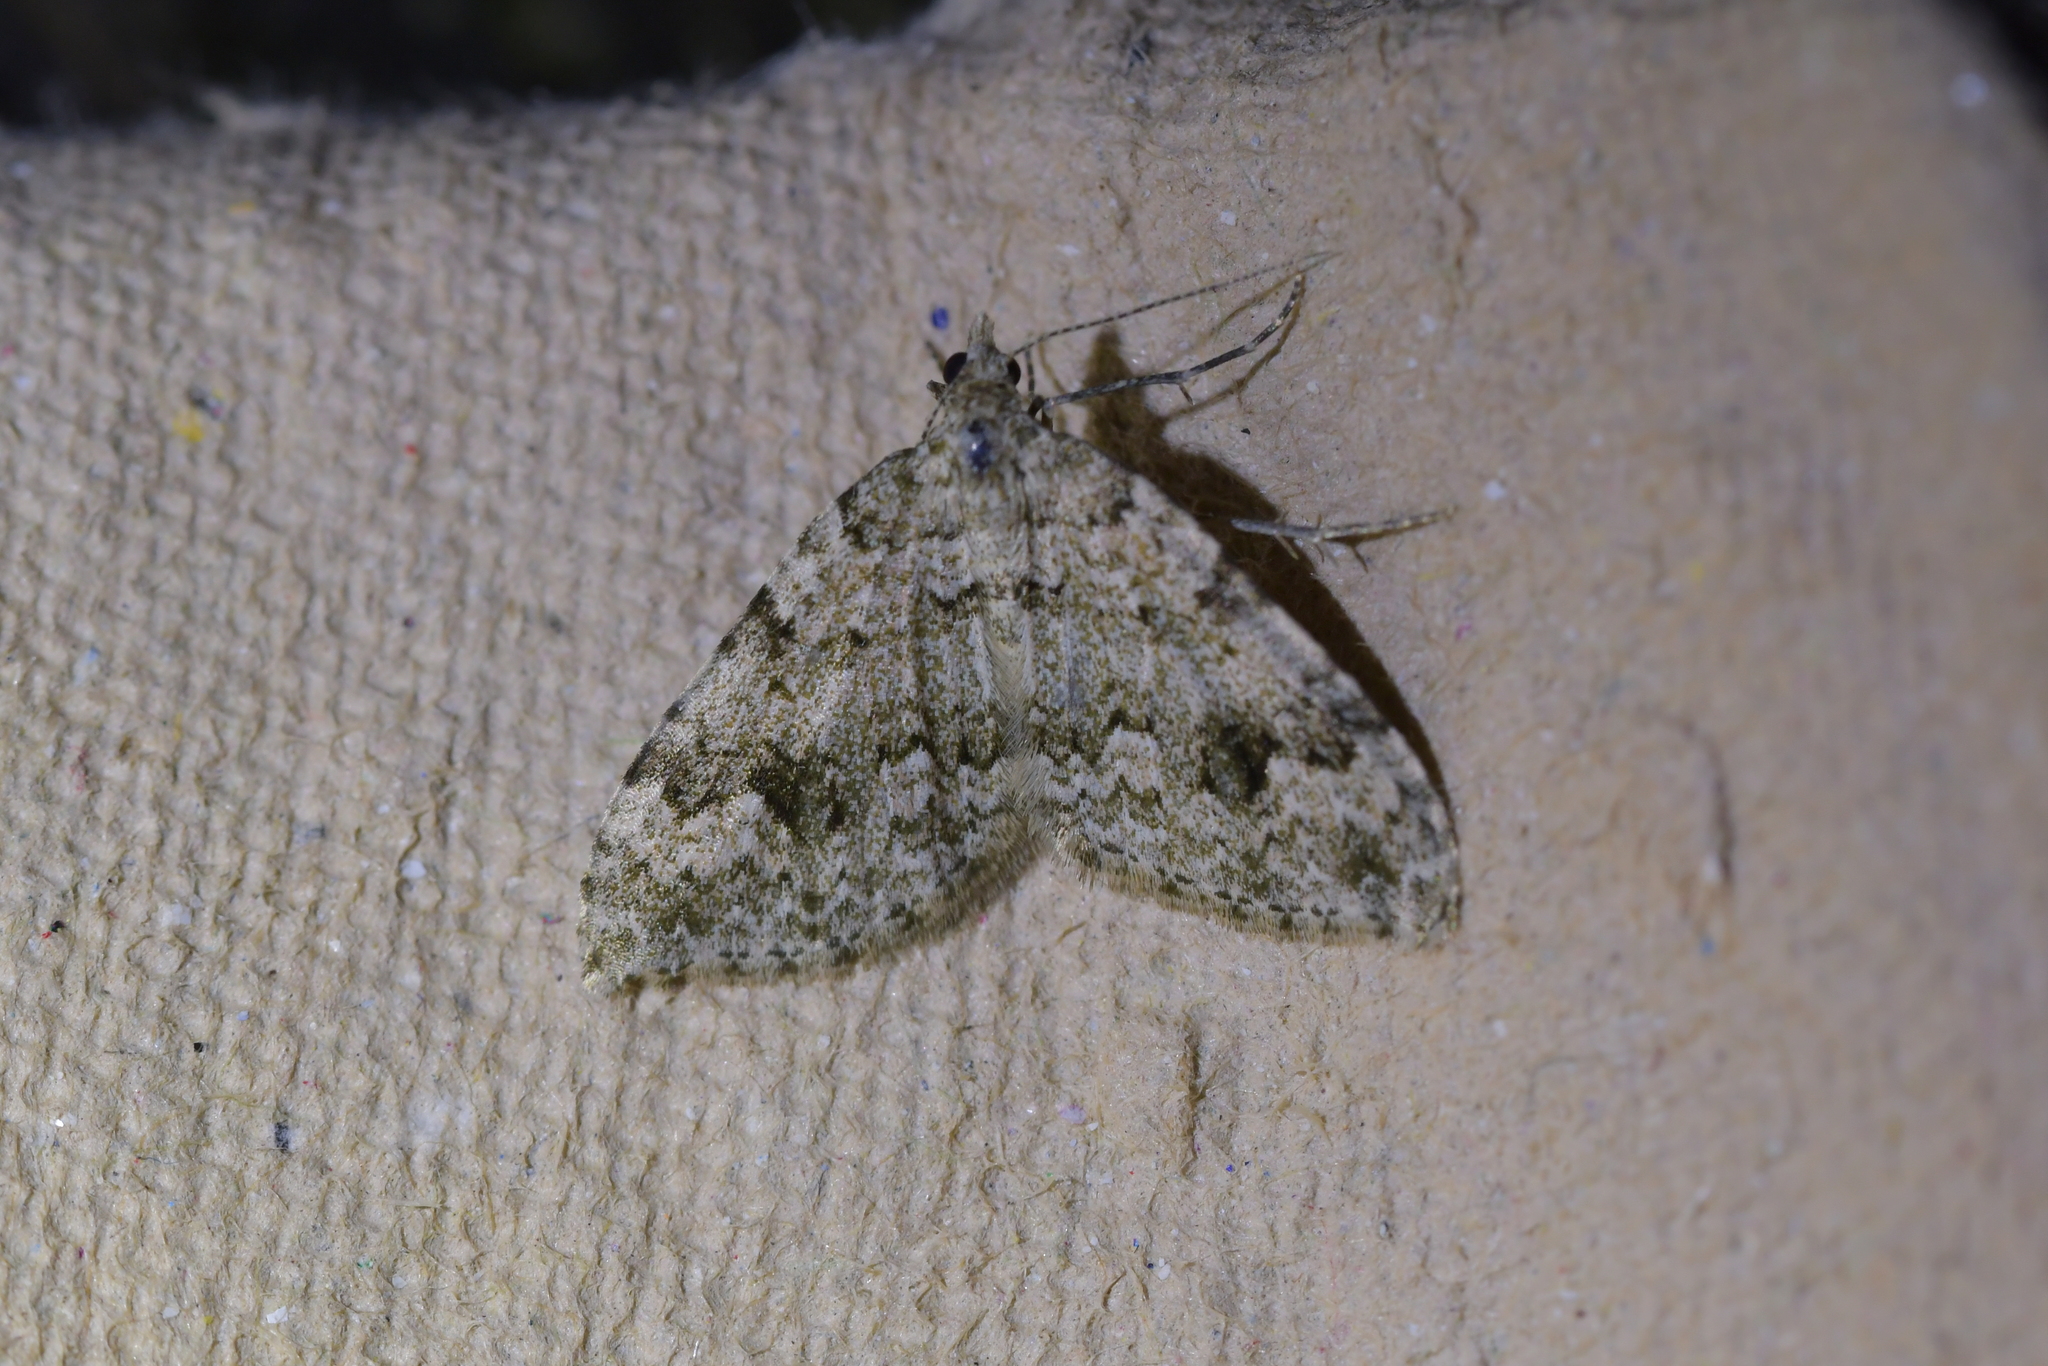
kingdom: Animalia
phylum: Arthropoda
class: Insecta
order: Lepidoptera
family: Geometridae
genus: Helastia
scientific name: Helastia cinerearia
